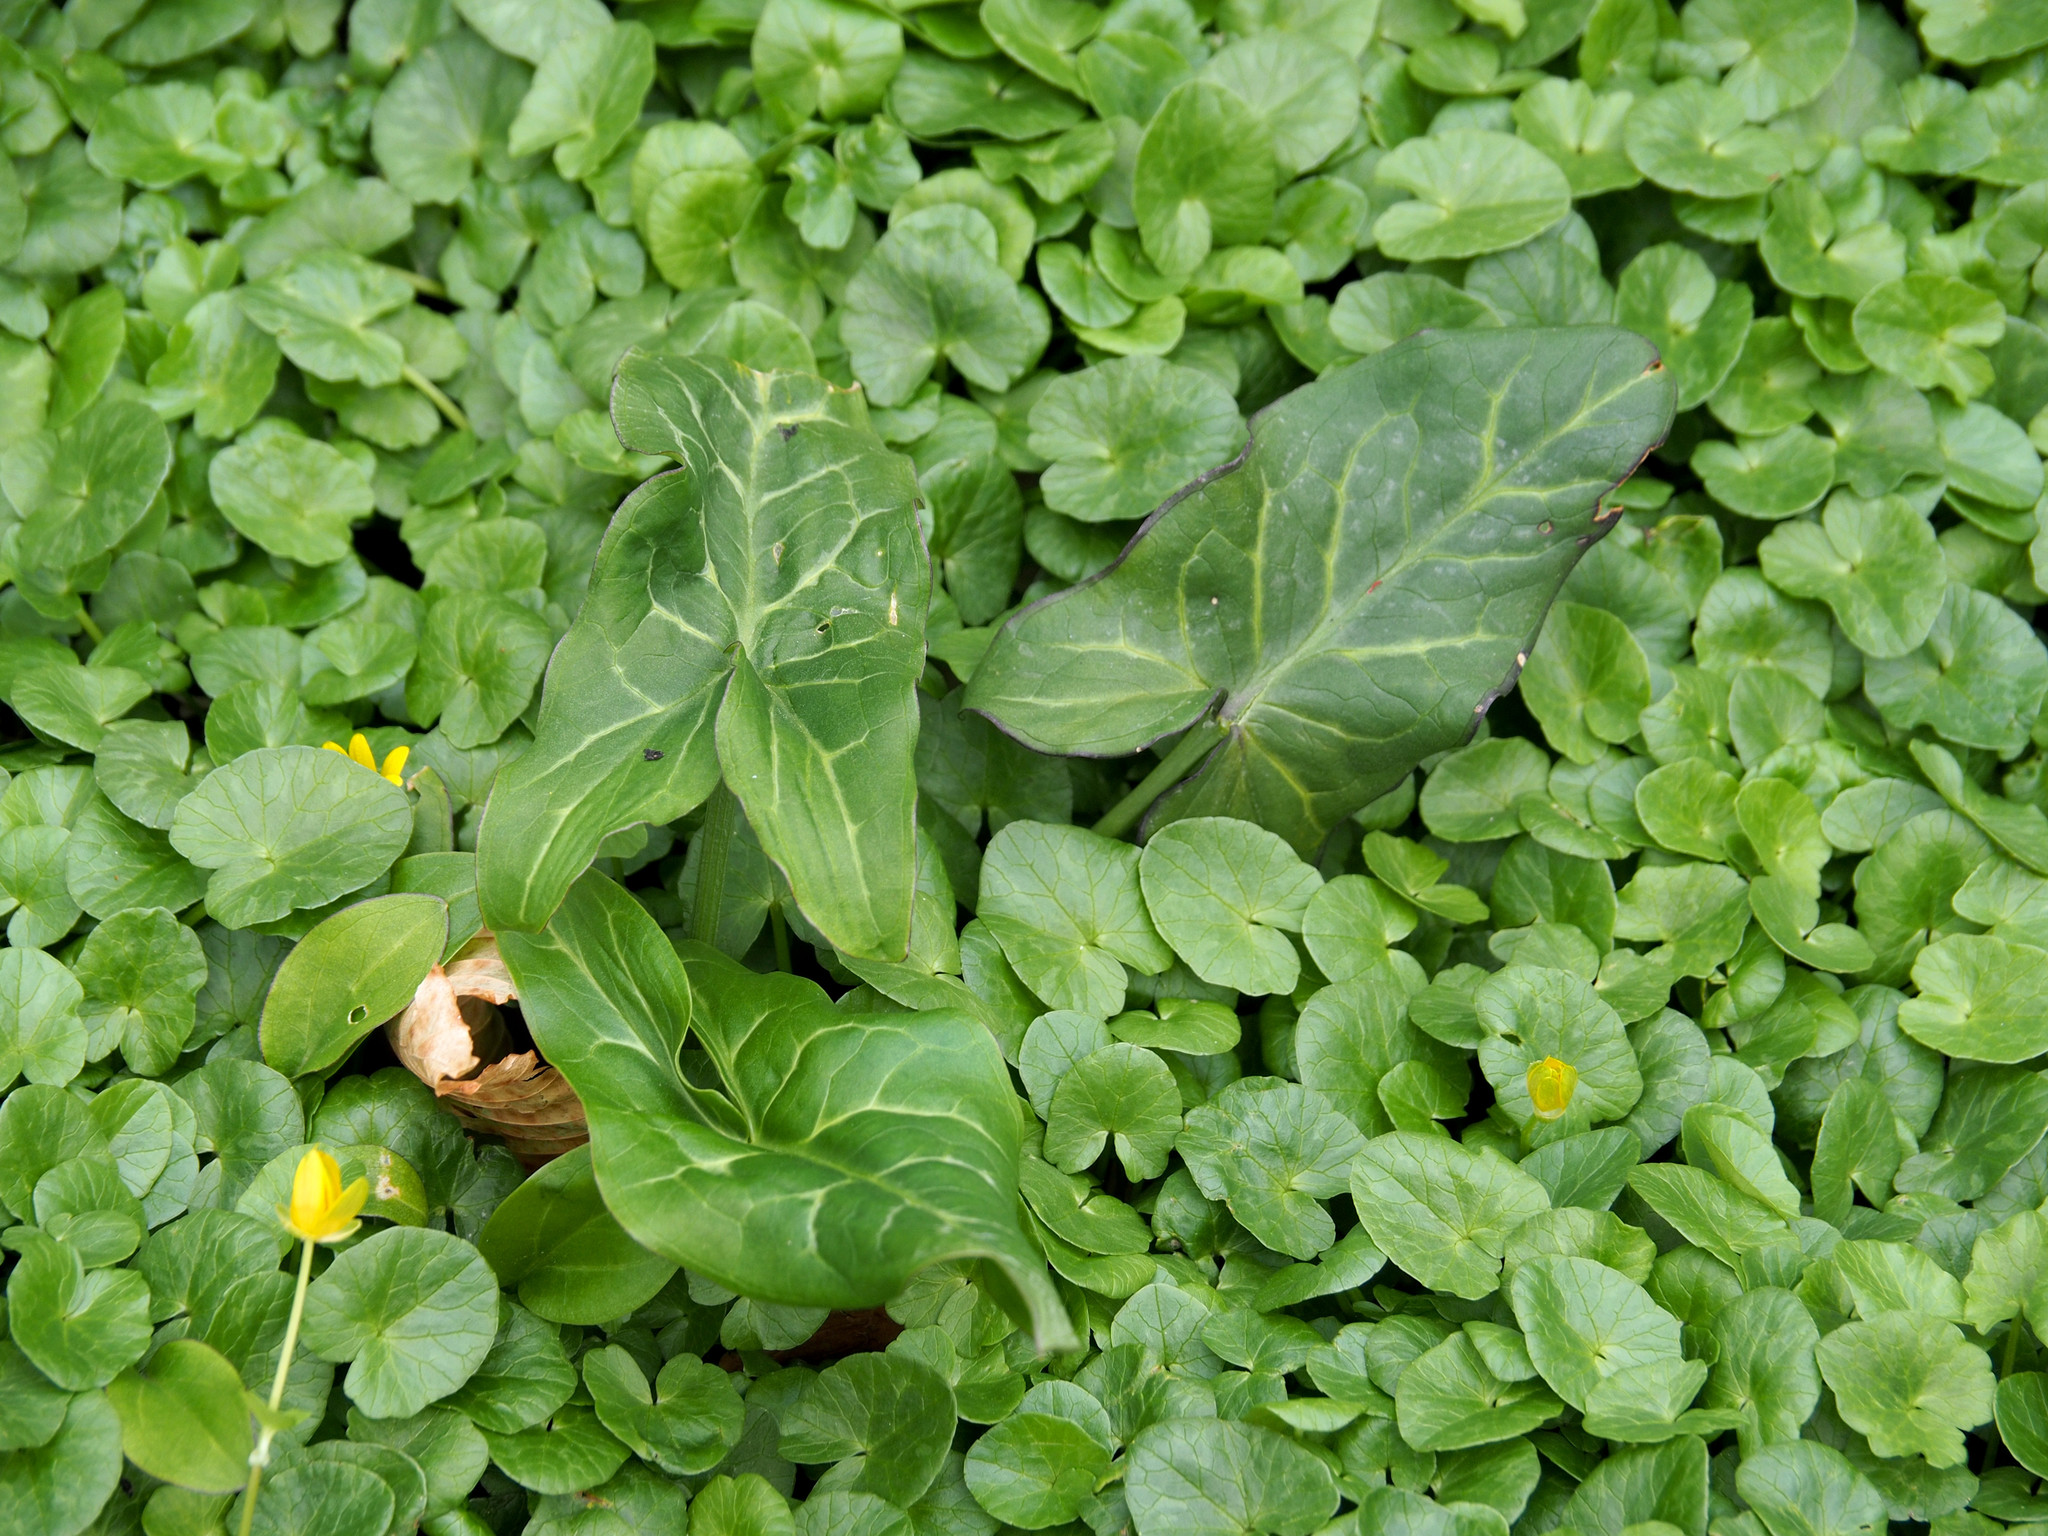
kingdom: Plantae
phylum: Tracheophyta
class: Liliopsida
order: Alismatales
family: Araceae
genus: Arum
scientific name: Arum italicum
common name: Italian lords-and-ladies
